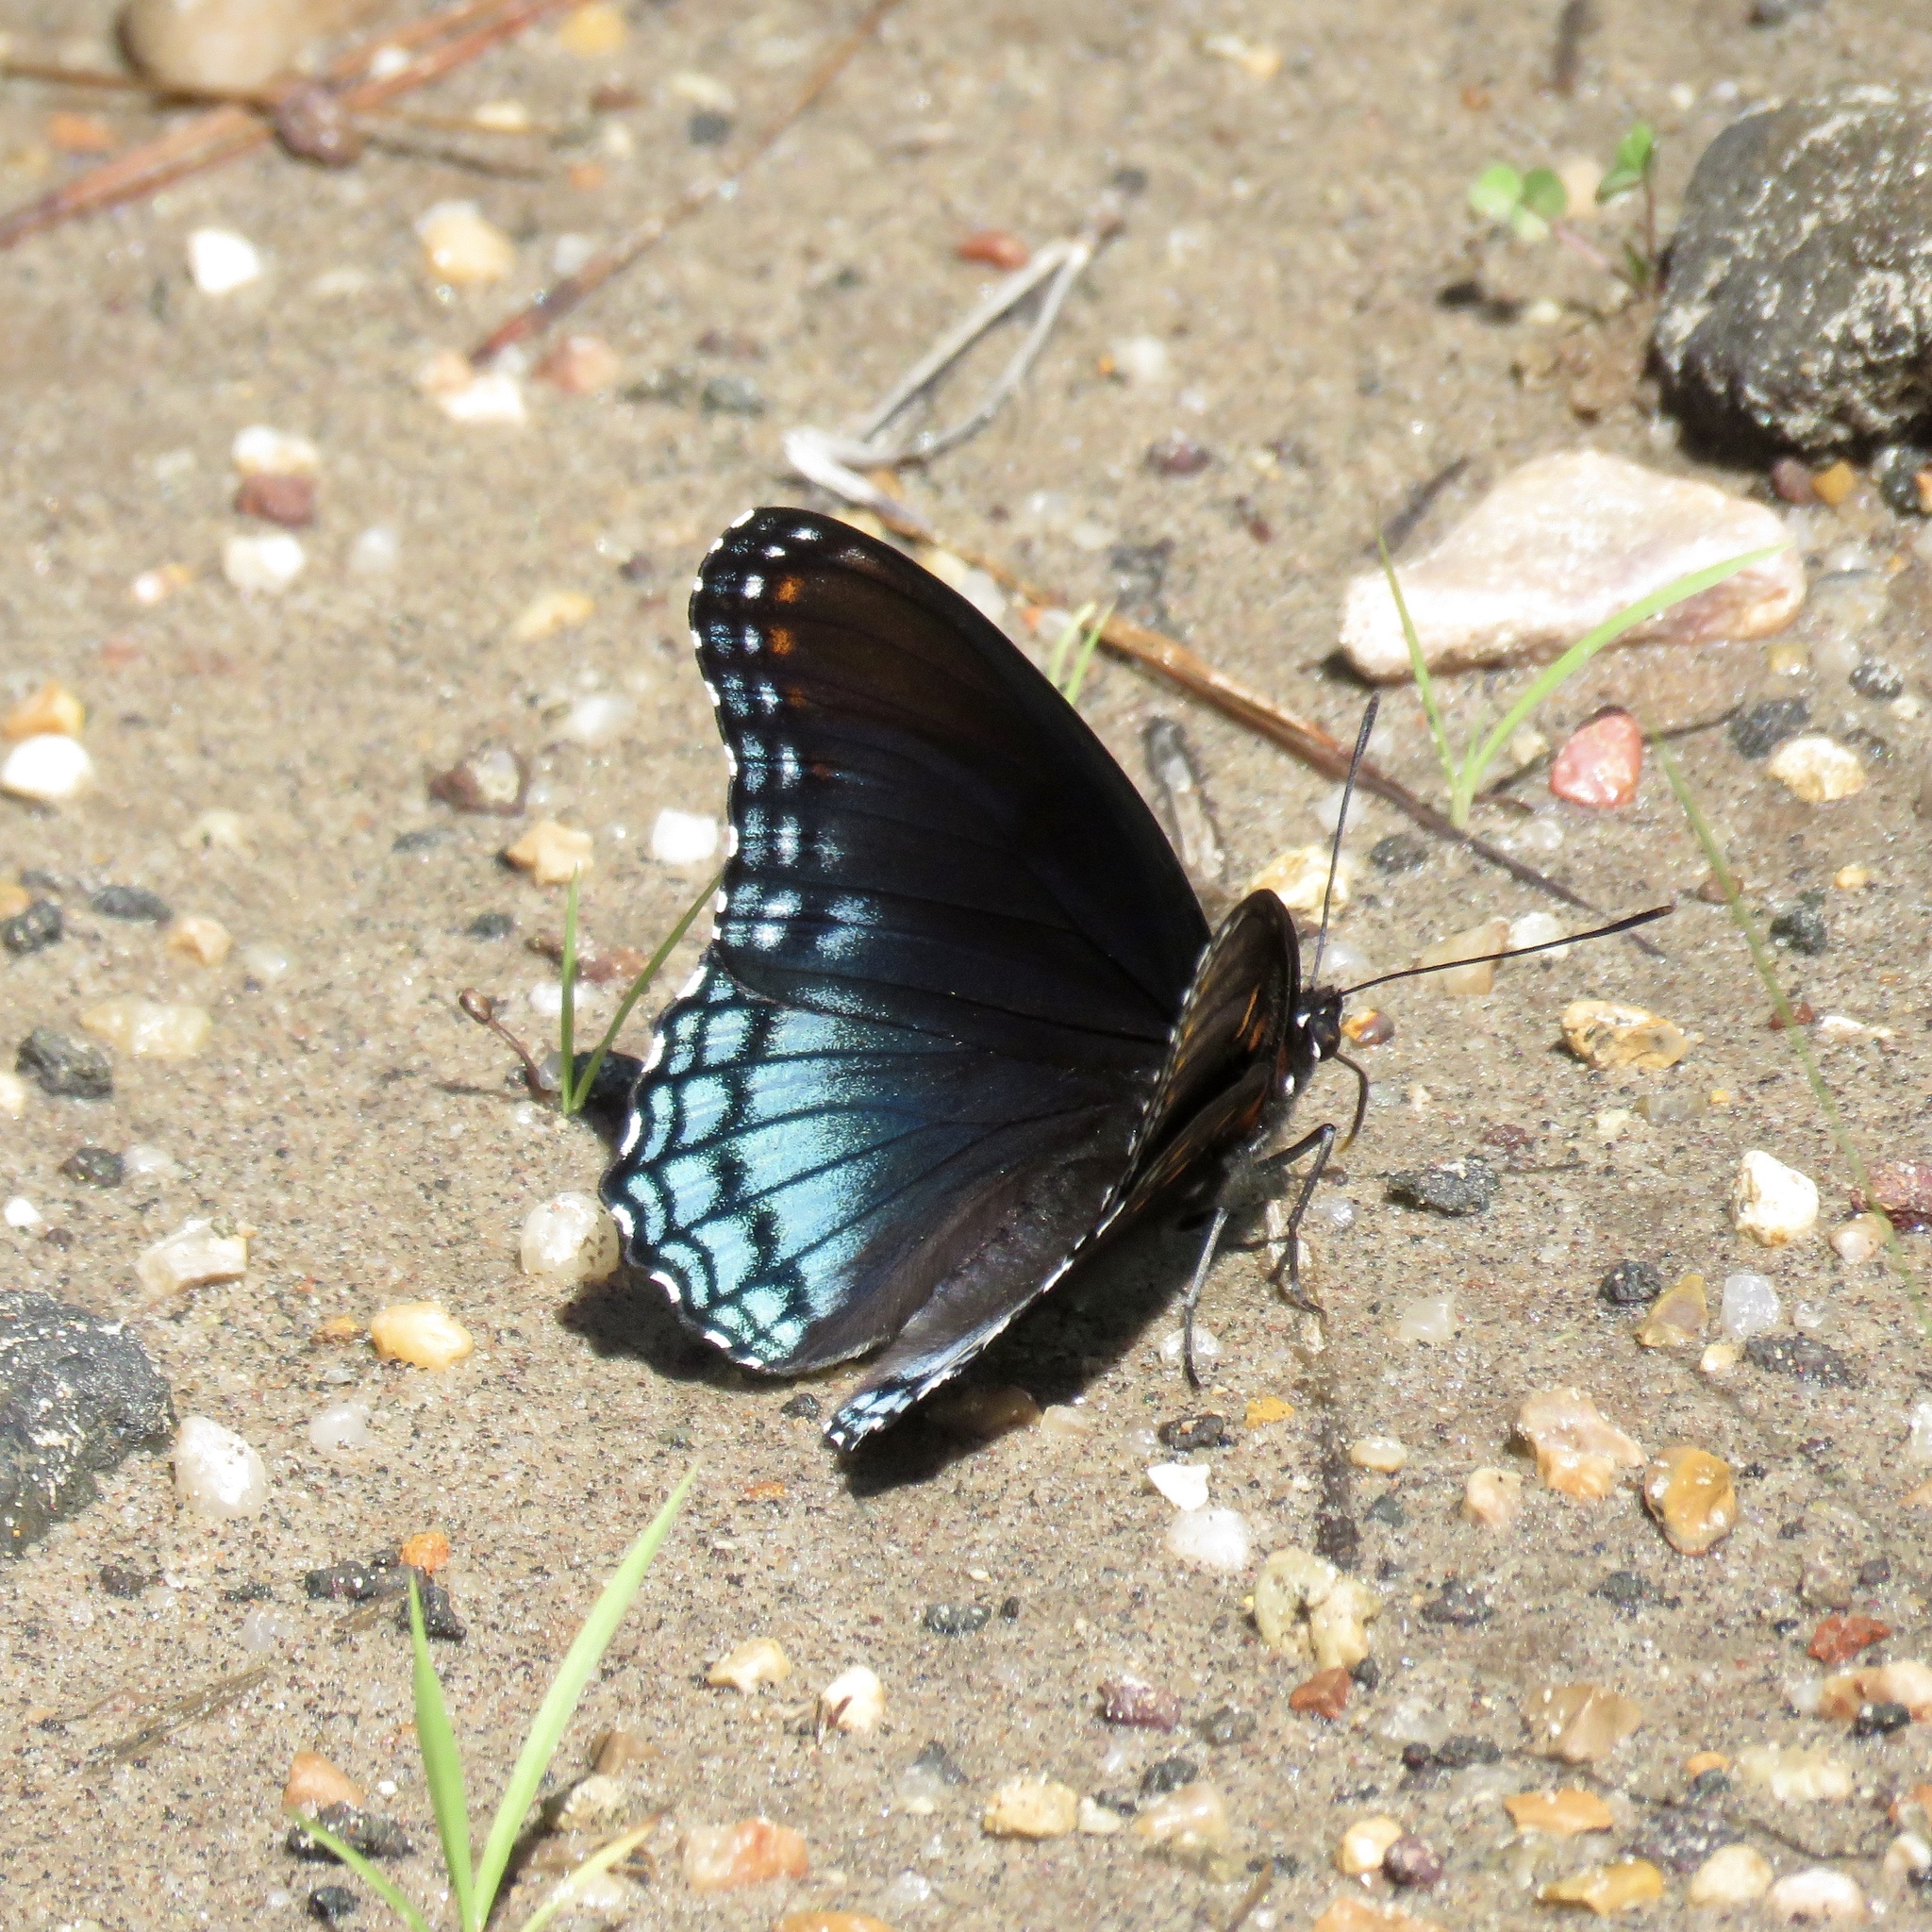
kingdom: Animalia
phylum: Arthropoda
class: Insecta
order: Lepidoptera
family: Nymphalidae
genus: Limenitis
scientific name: Limenitis arthemis
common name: Red-spotted admiral
